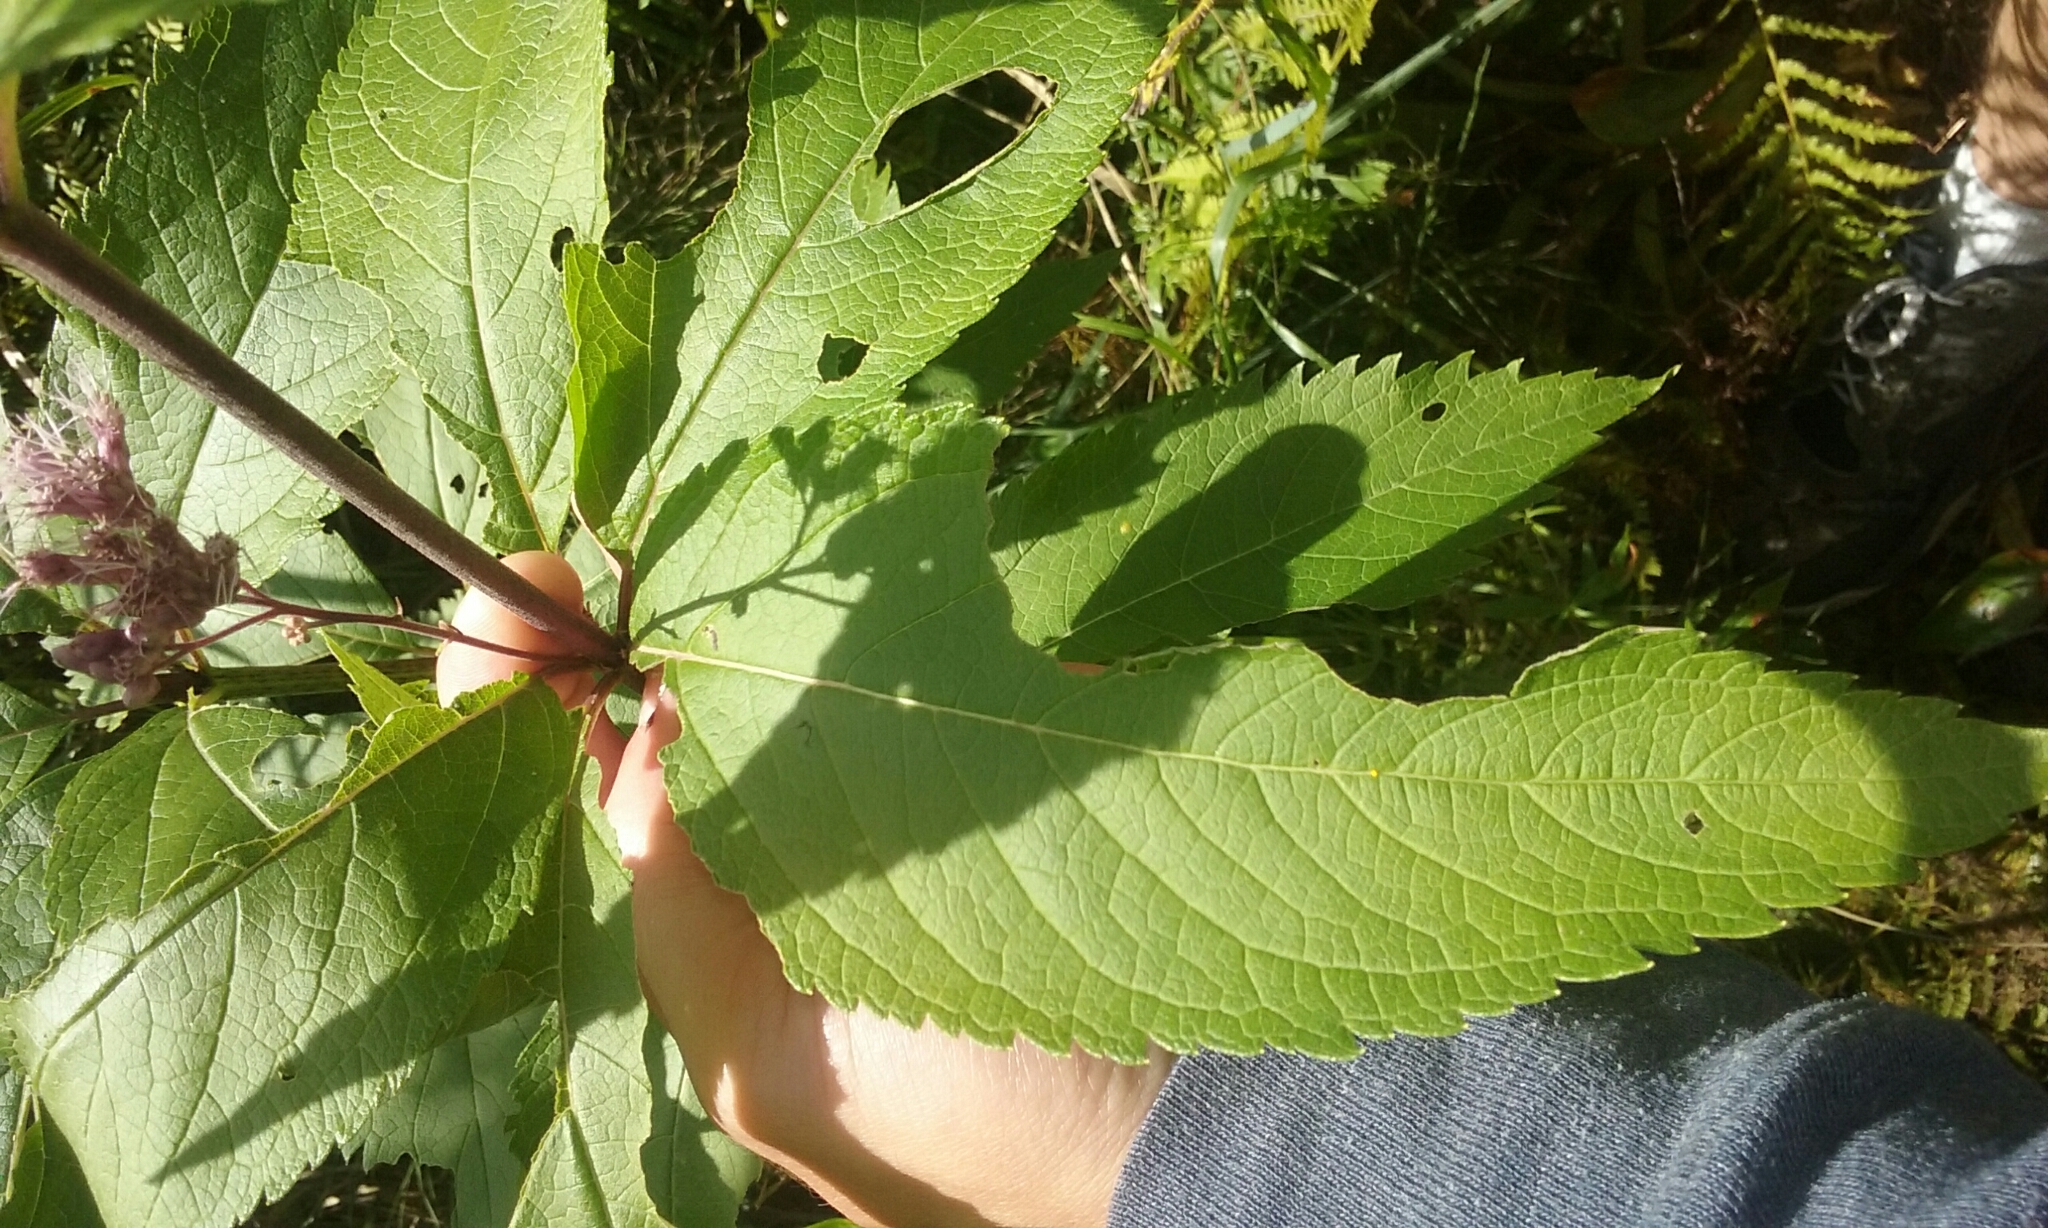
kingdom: Plantae
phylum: Tracheophyta
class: Magnoliopsida
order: Asterales
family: Asteraceae
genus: Eutrochium
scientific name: Eutrochium maculatum
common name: Spotted joe pye weed
